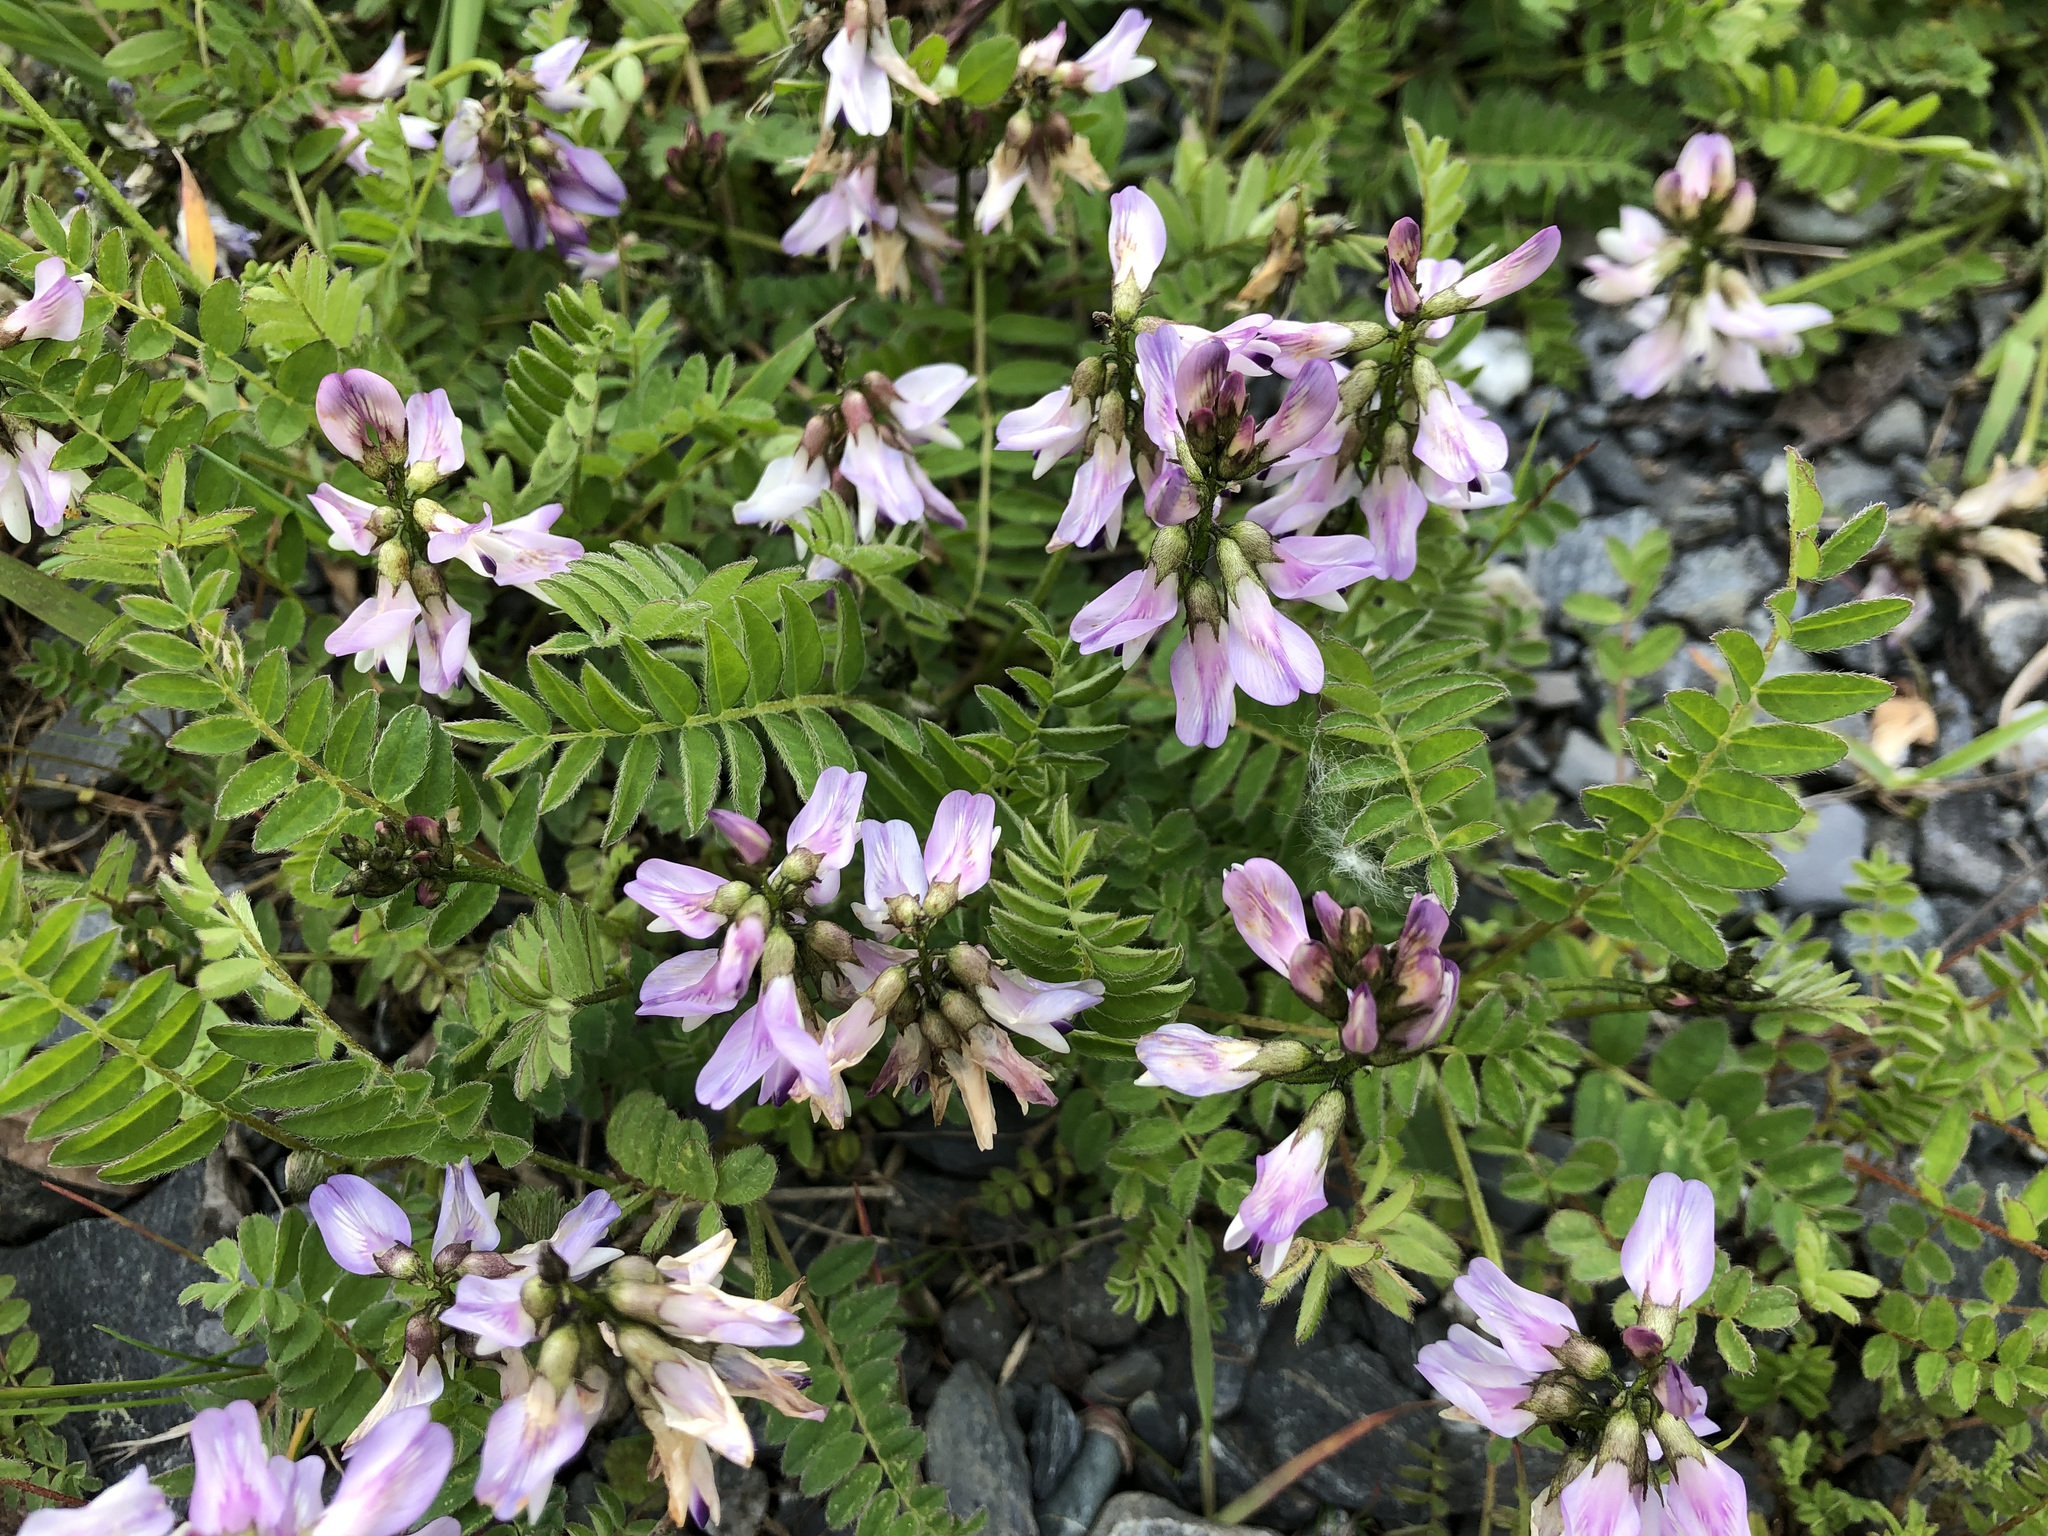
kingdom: Plantae
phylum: Tracheophyta
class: Magnoliopsida
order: Fabales
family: Fabaceae
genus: Astragalus
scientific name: Astragalus alpinus
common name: Alpine milk-vetch
